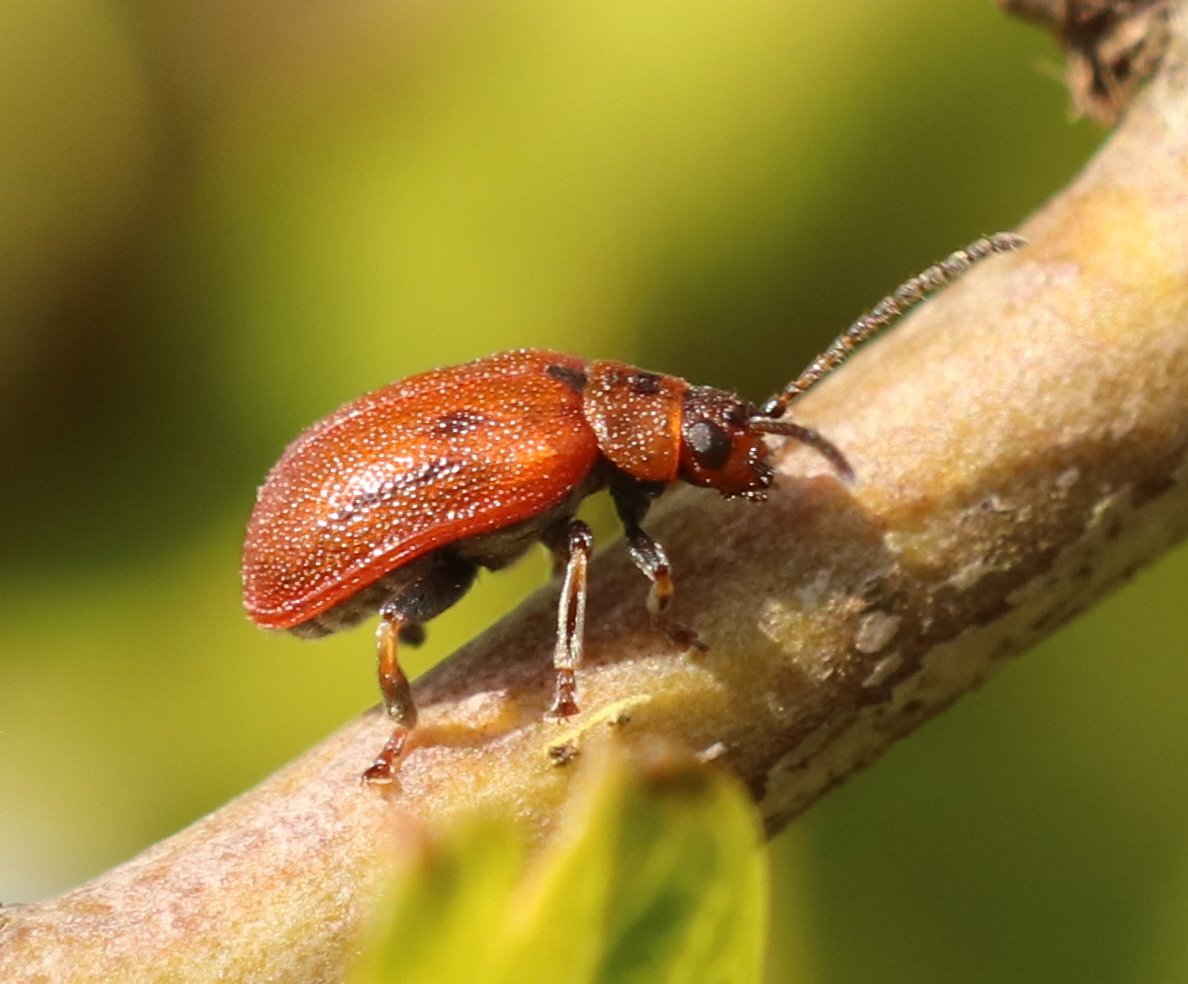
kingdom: Animalia
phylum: Arthropoda
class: Insecta
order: Coleoptera
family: Chrysomelidae
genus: Lochmaea
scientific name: Lochmaea crataegi
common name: Hawthorn leaf beetle
